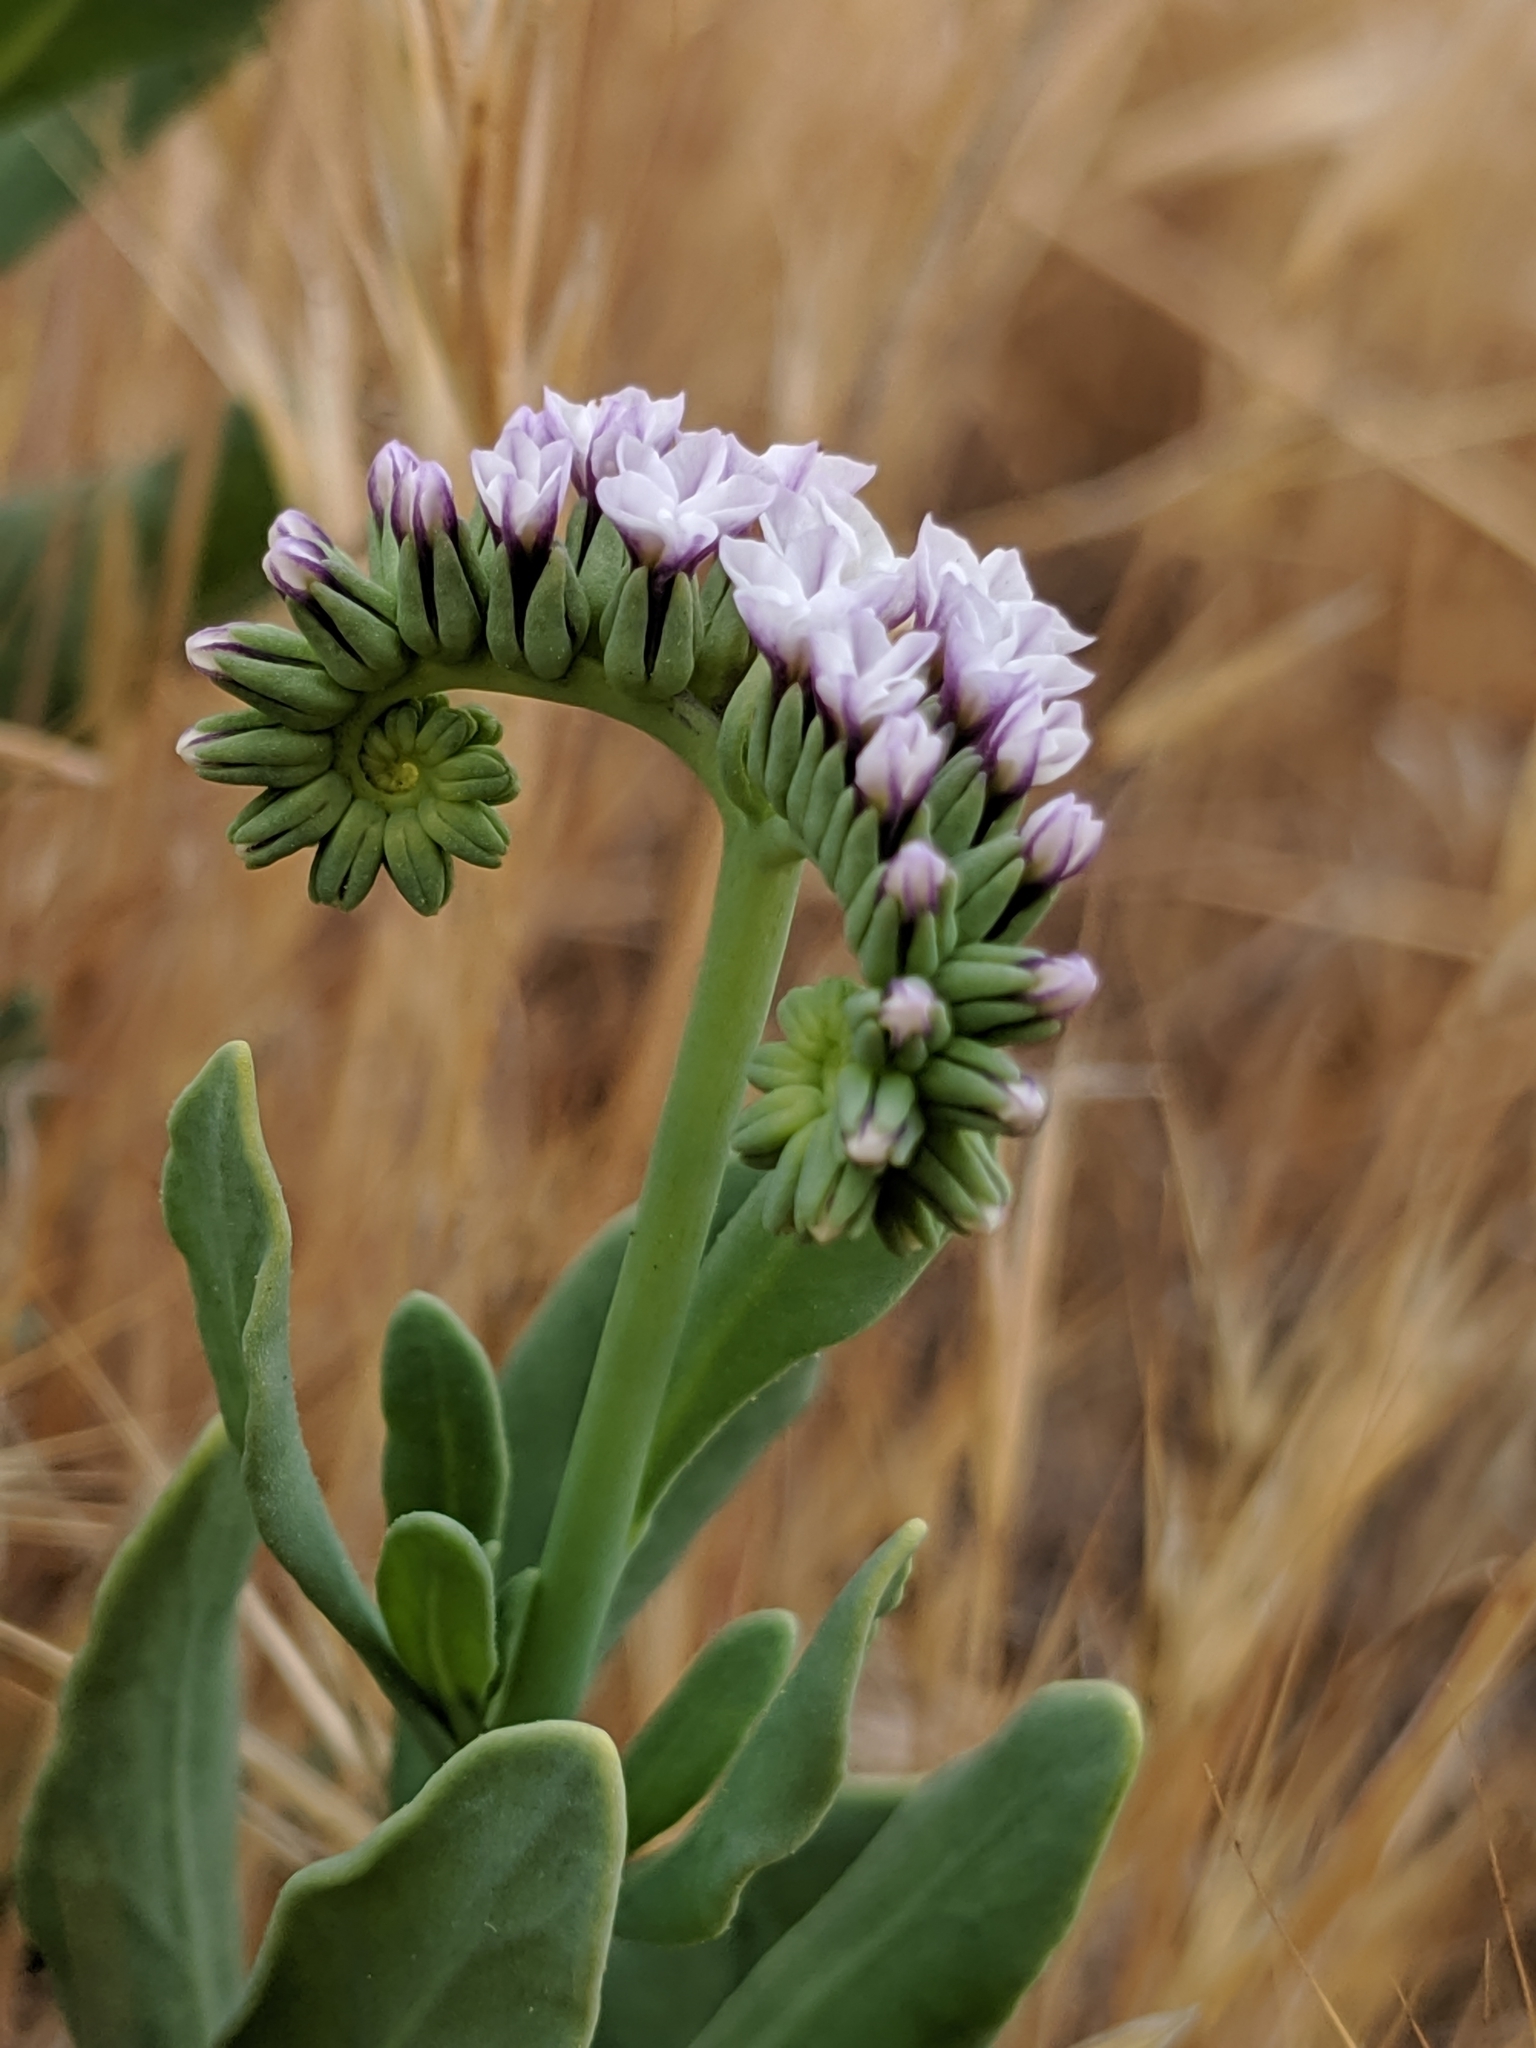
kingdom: Plantae
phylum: Tracheophyta
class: Magnoliopsida
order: Boraginales
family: Heliotropiaceae
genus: Heliotropium
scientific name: Heliotropium curassavicum
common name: Seaside heliotrope
